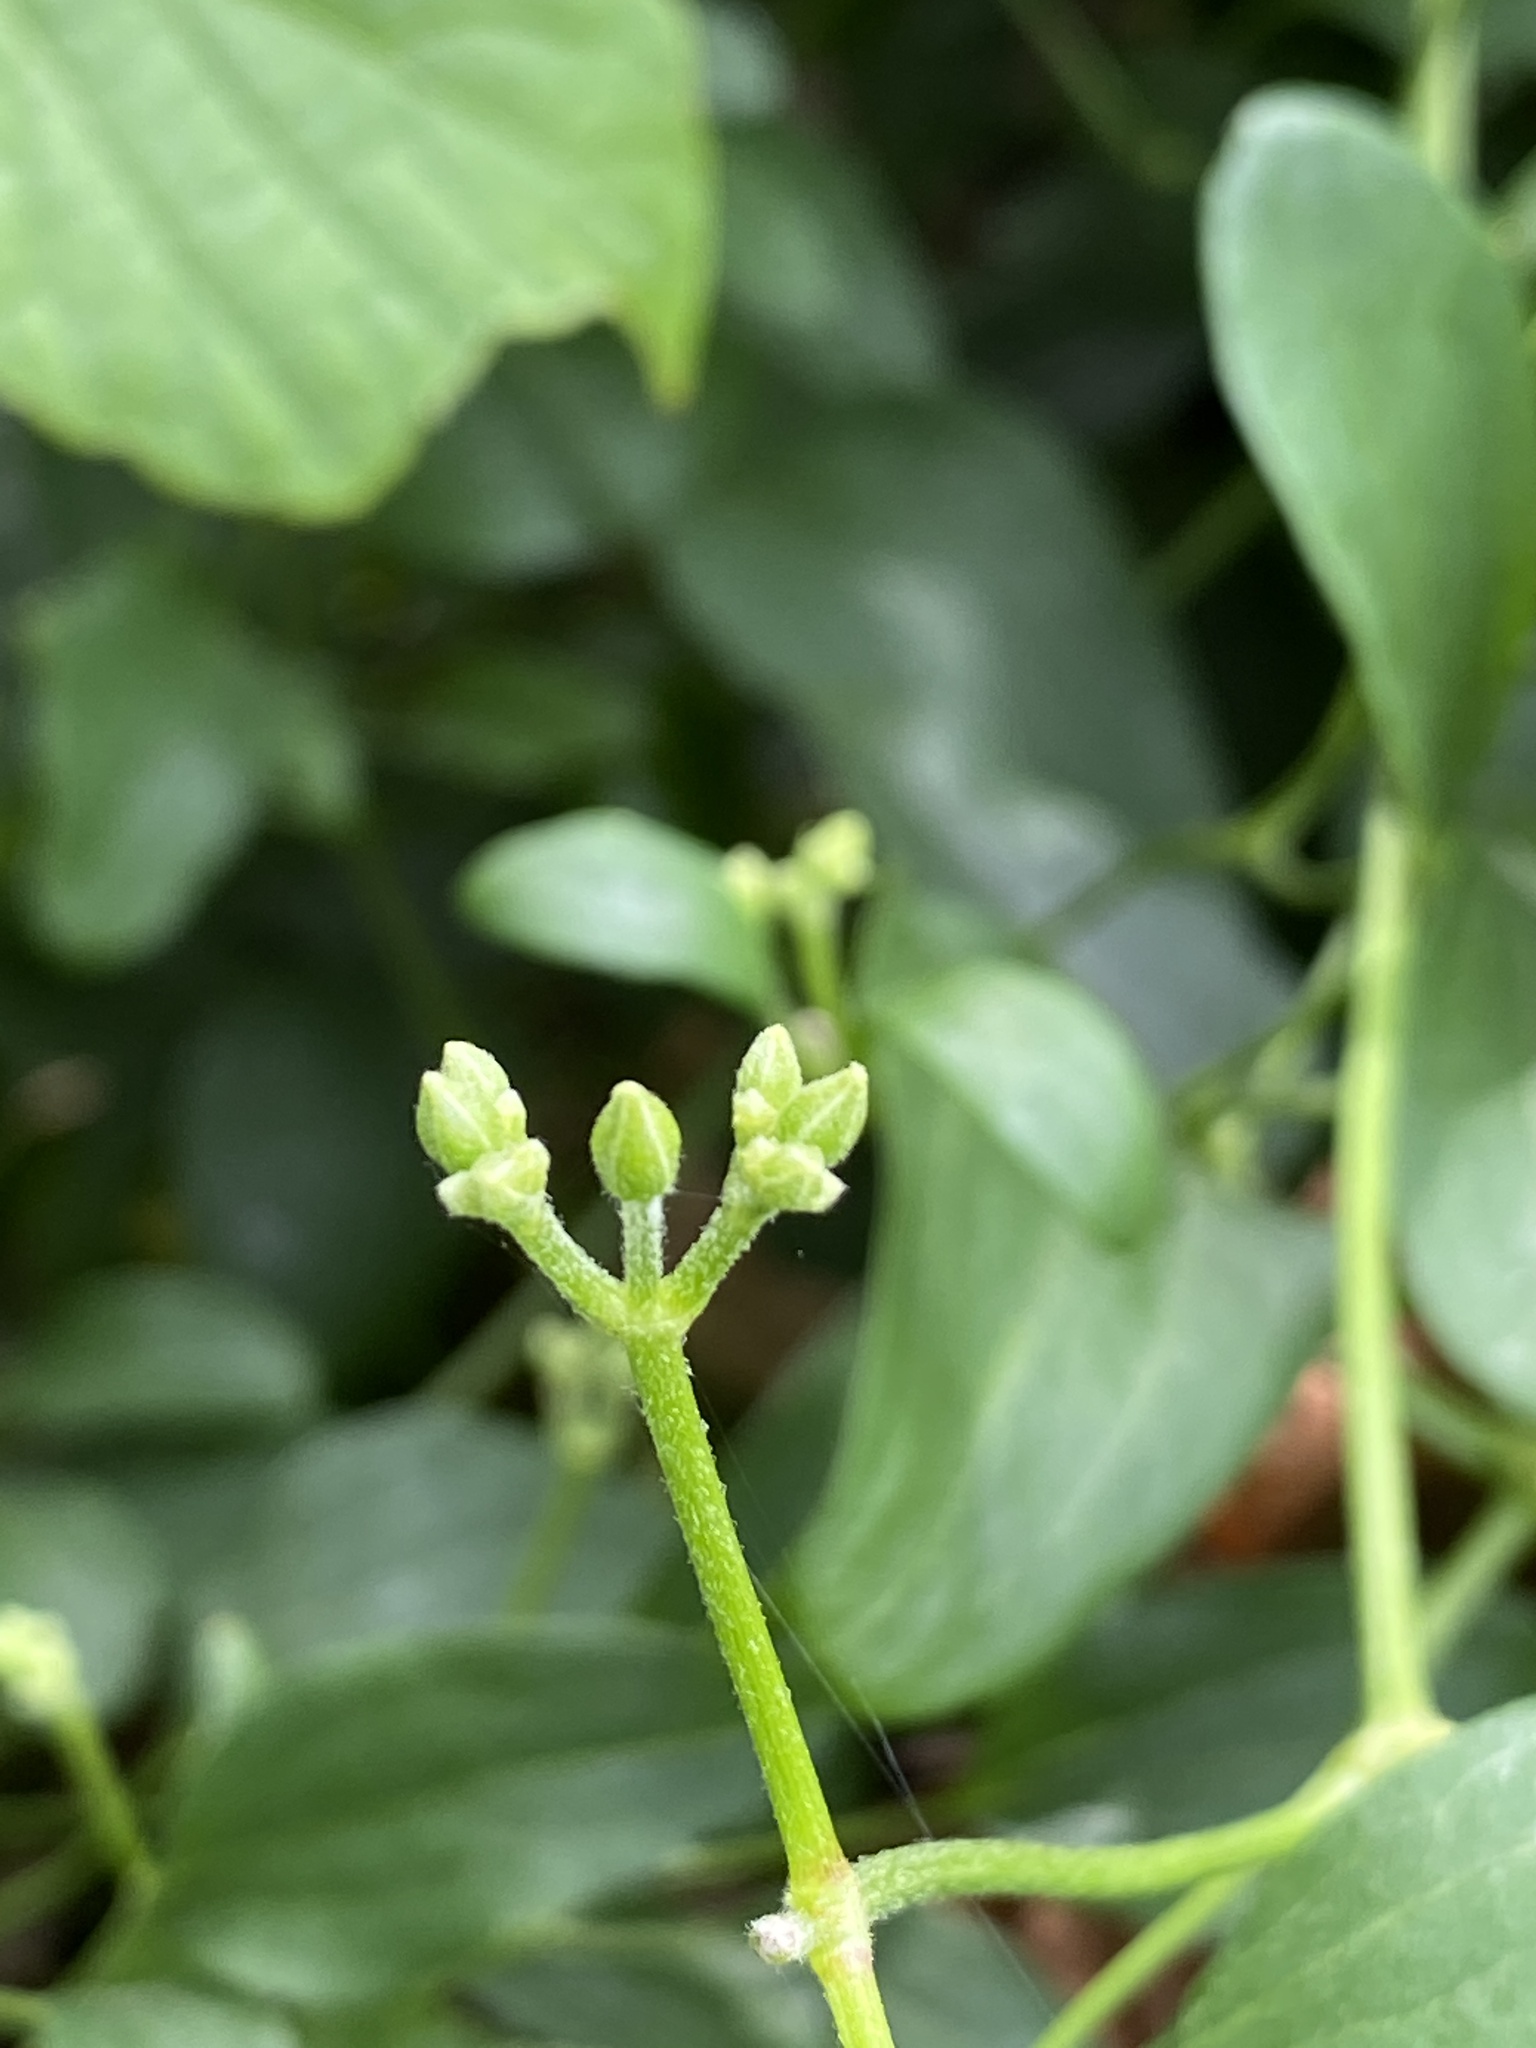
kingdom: Plantae
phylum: Tracheophyta
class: Magnoliopsida
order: Ranunculales
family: Ranunculaceae
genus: Clematis
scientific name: Clematis terniflora
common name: Sweet autumn clematis
